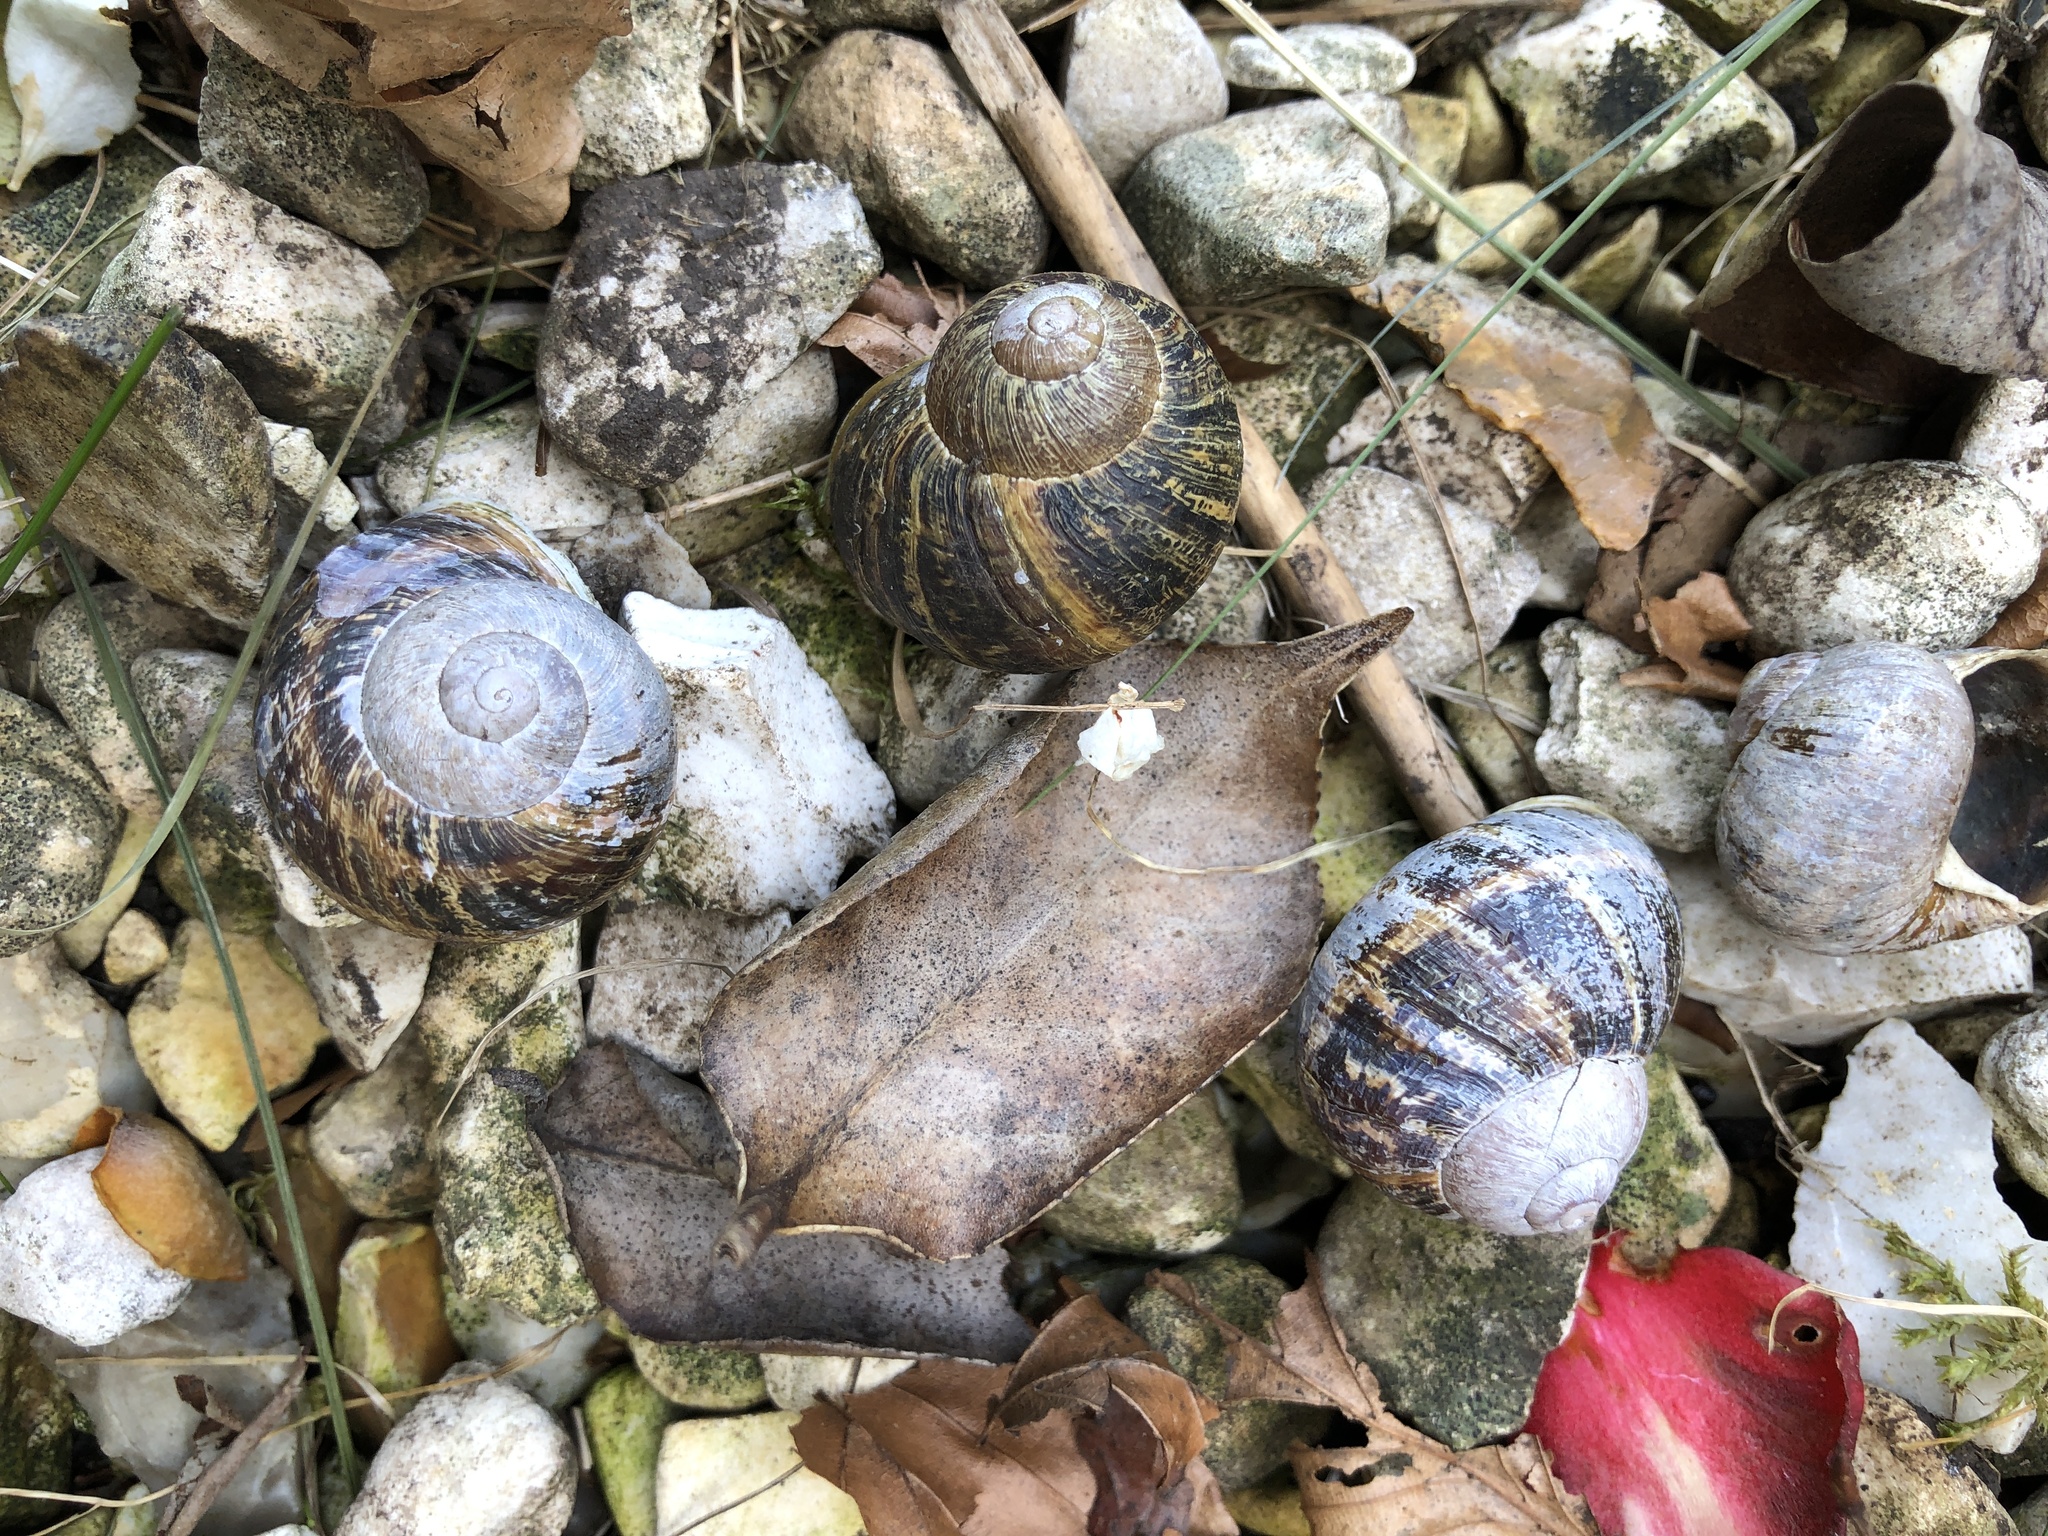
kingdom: Animalia
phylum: Mollusca
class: Gastropoda
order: Stylommatophora
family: Helicidae
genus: Cornu
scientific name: Cornu aspersum
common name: Brown garden snail
